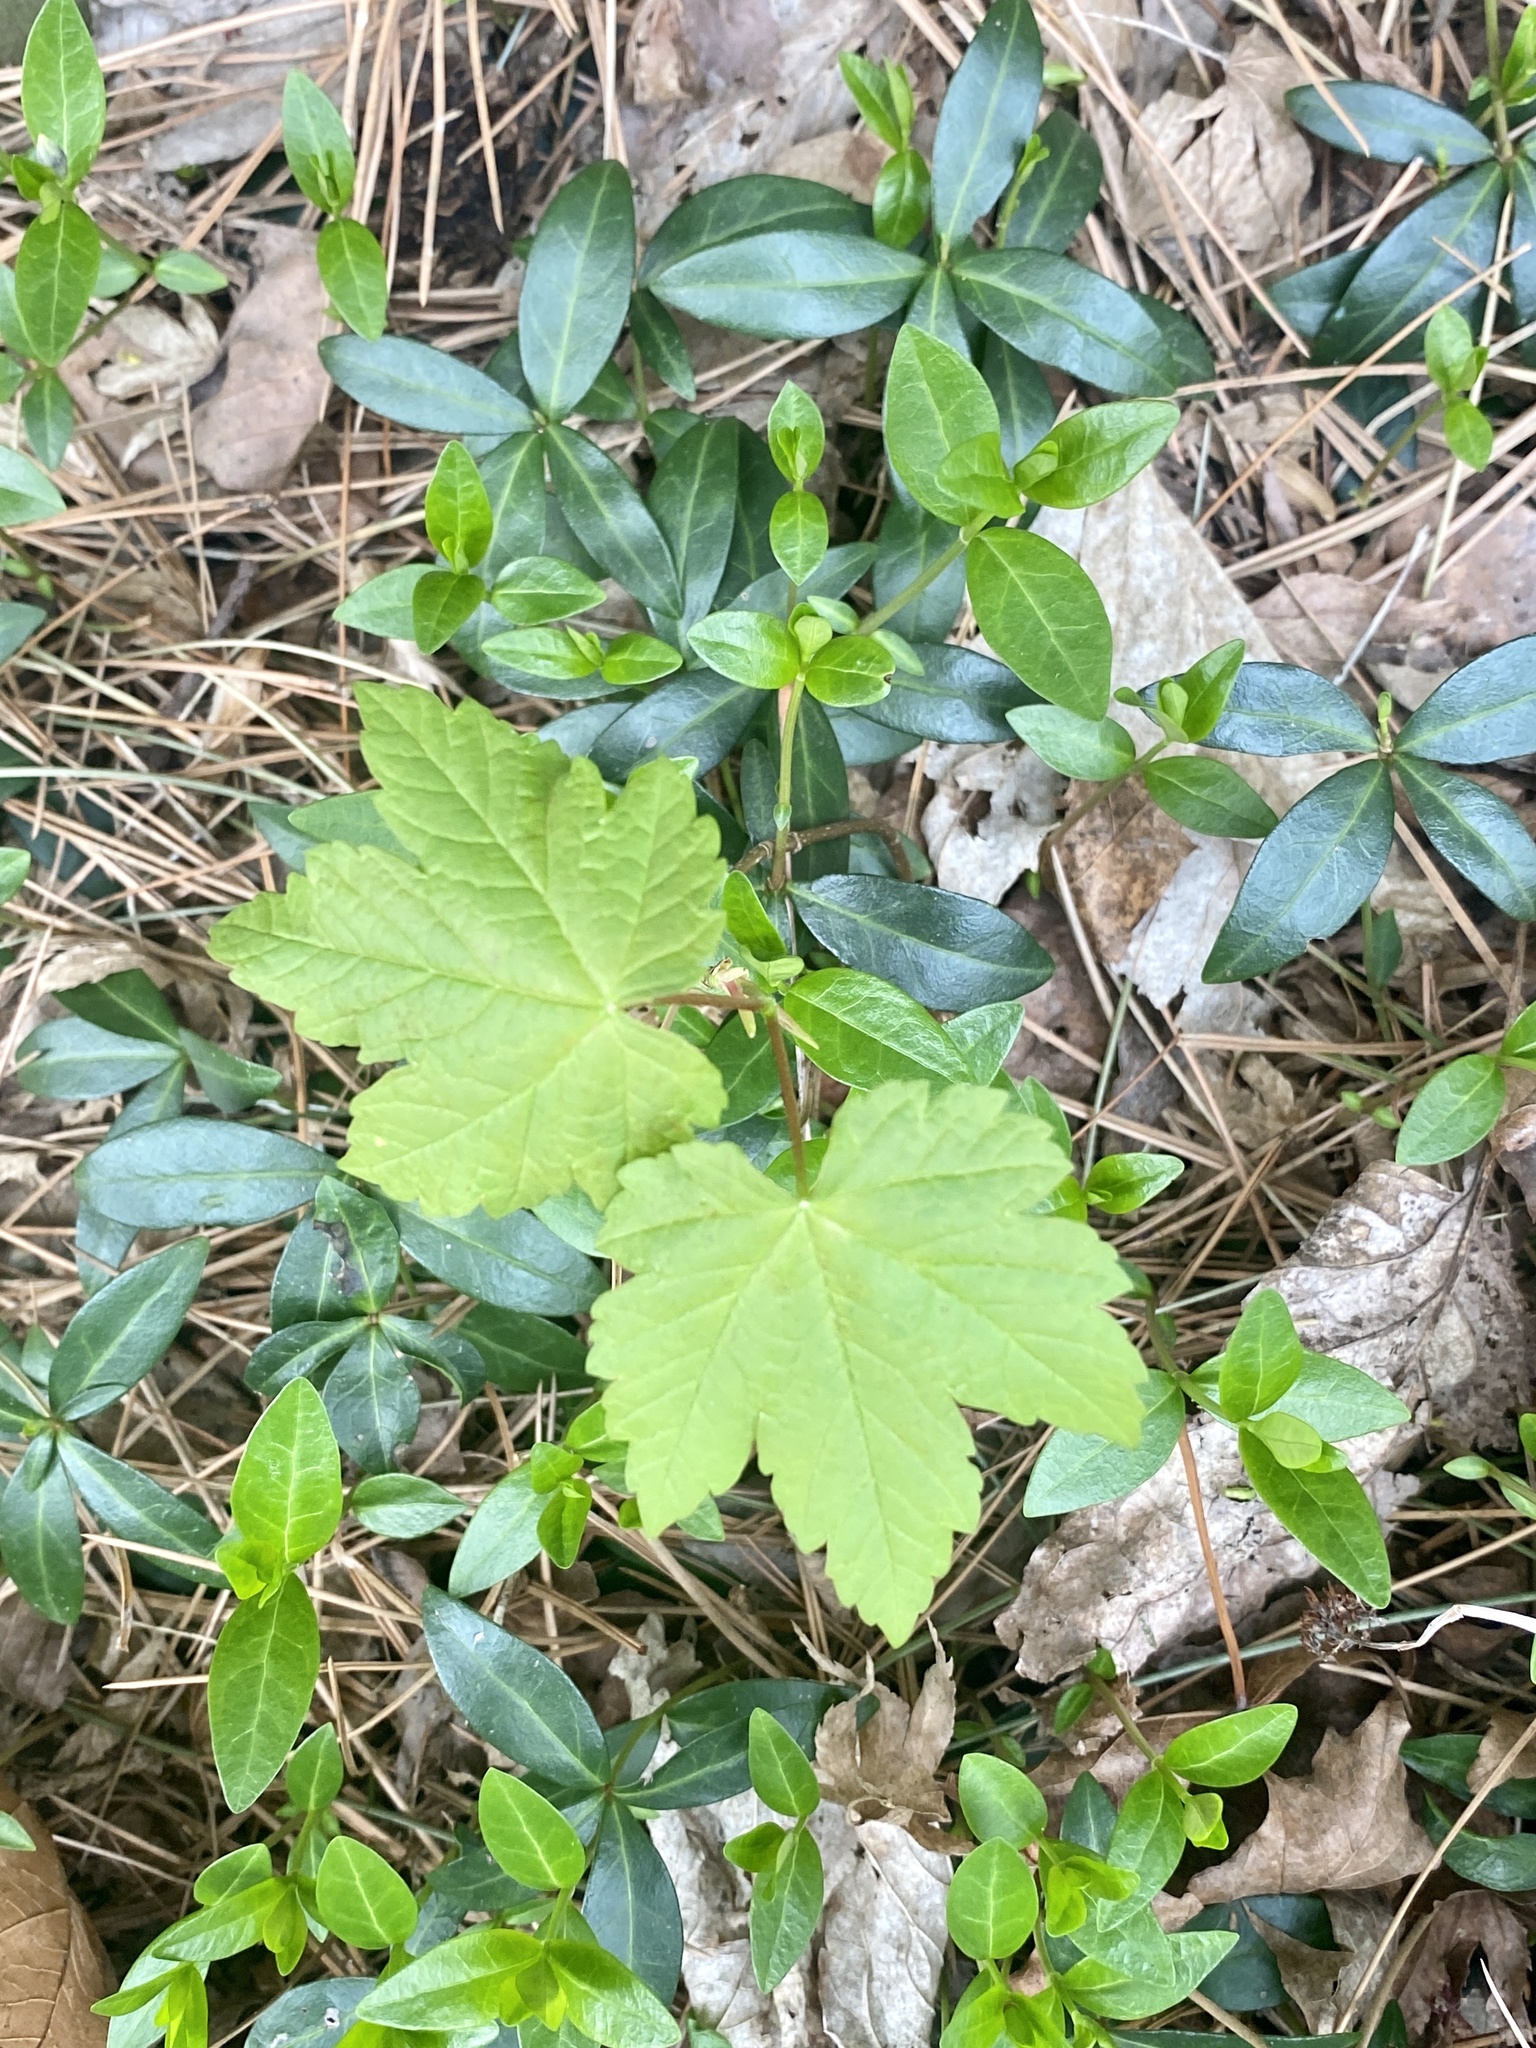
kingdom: Plantae
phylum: Tracheophyta
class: Magnoliopsida
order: Sapindales
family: Sapindaceae
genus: Acer
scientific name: Acer pseudoplatanus
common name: Sycamore
